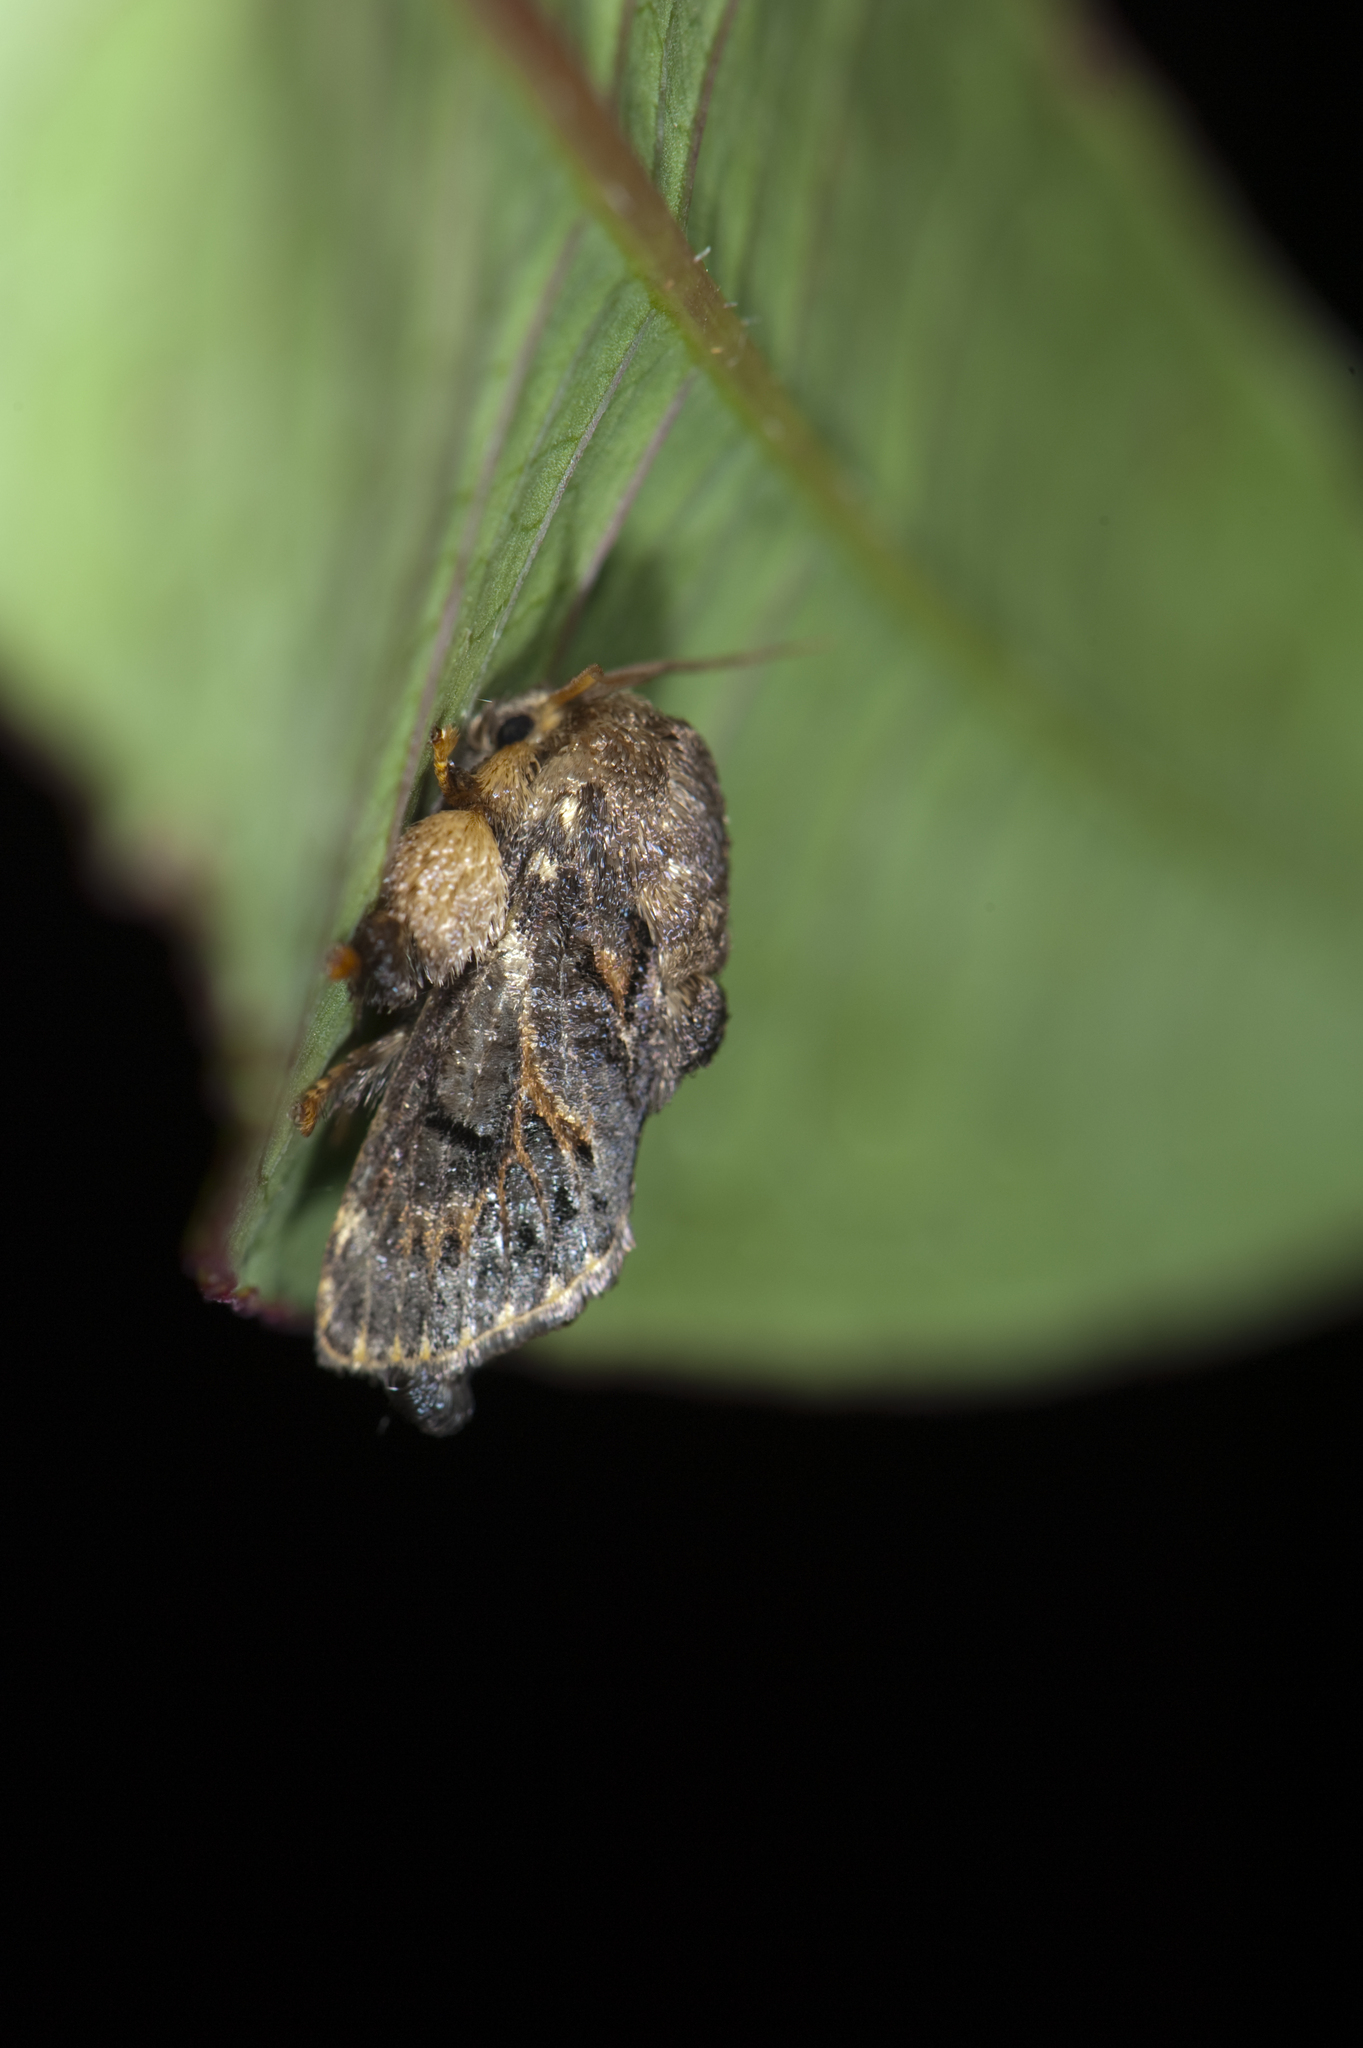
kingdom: Animalia
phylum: Arthropoda
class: Insecta
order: Lepidoptera
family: Limacodidae
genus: Prapata
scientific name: Prapata owadai
